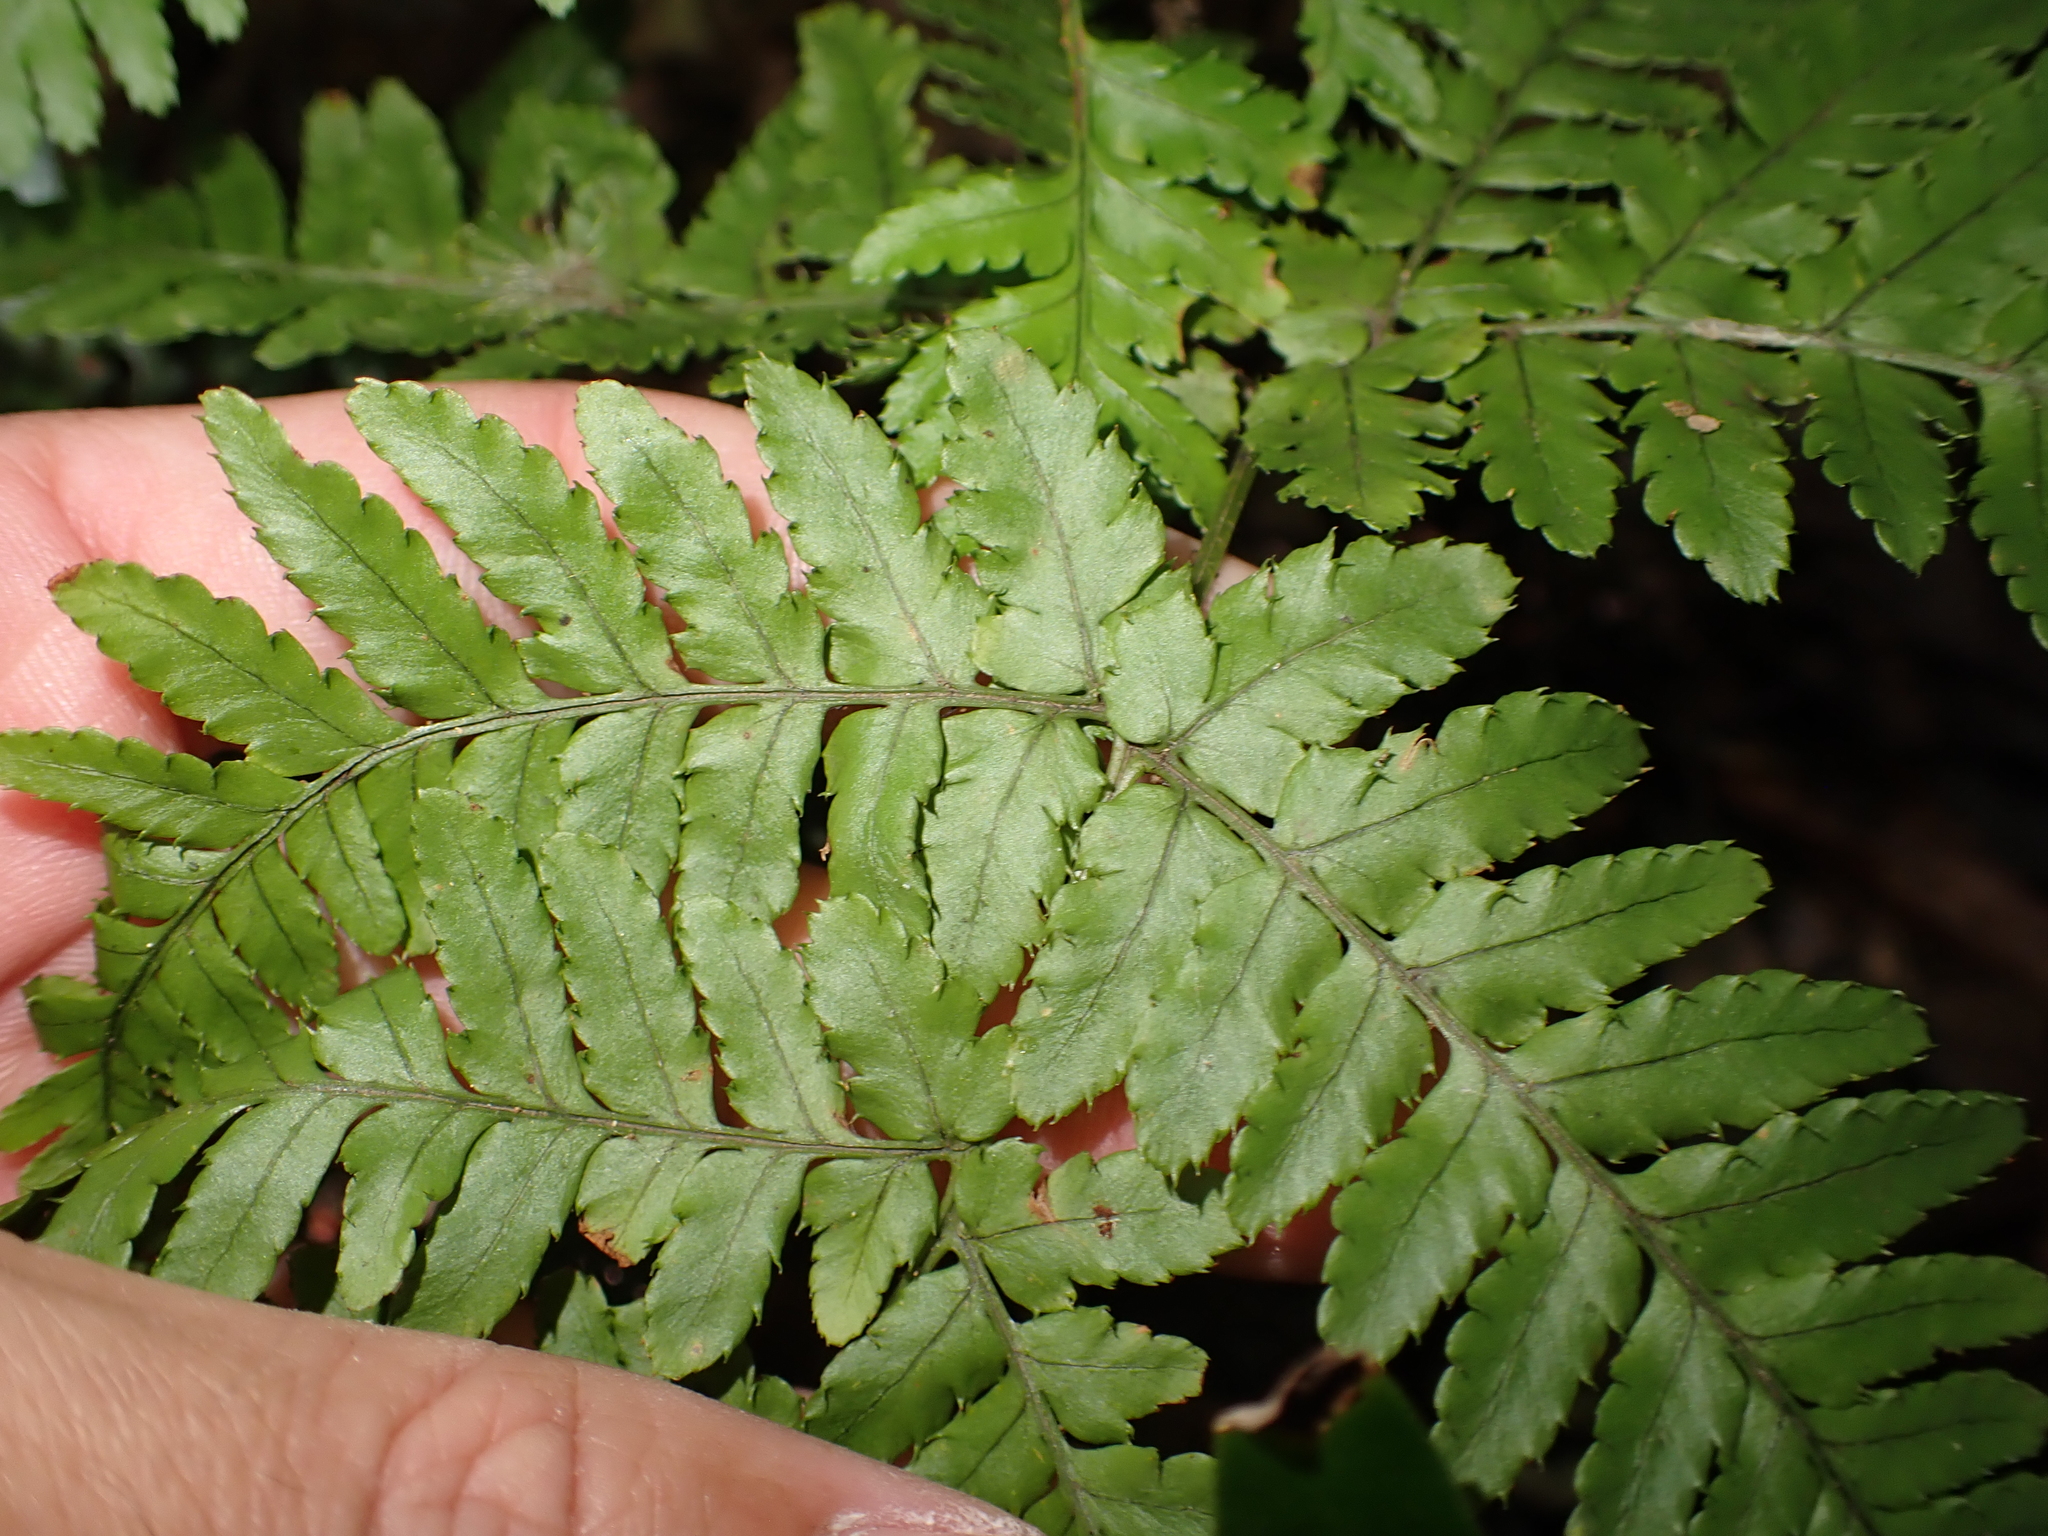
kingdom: Plantae
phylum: Tracheophyta
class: Polypodiopsida
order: Polypodiales
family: Dryopteridaceae
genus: Dryopteris
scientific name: Dryopteris formosana
